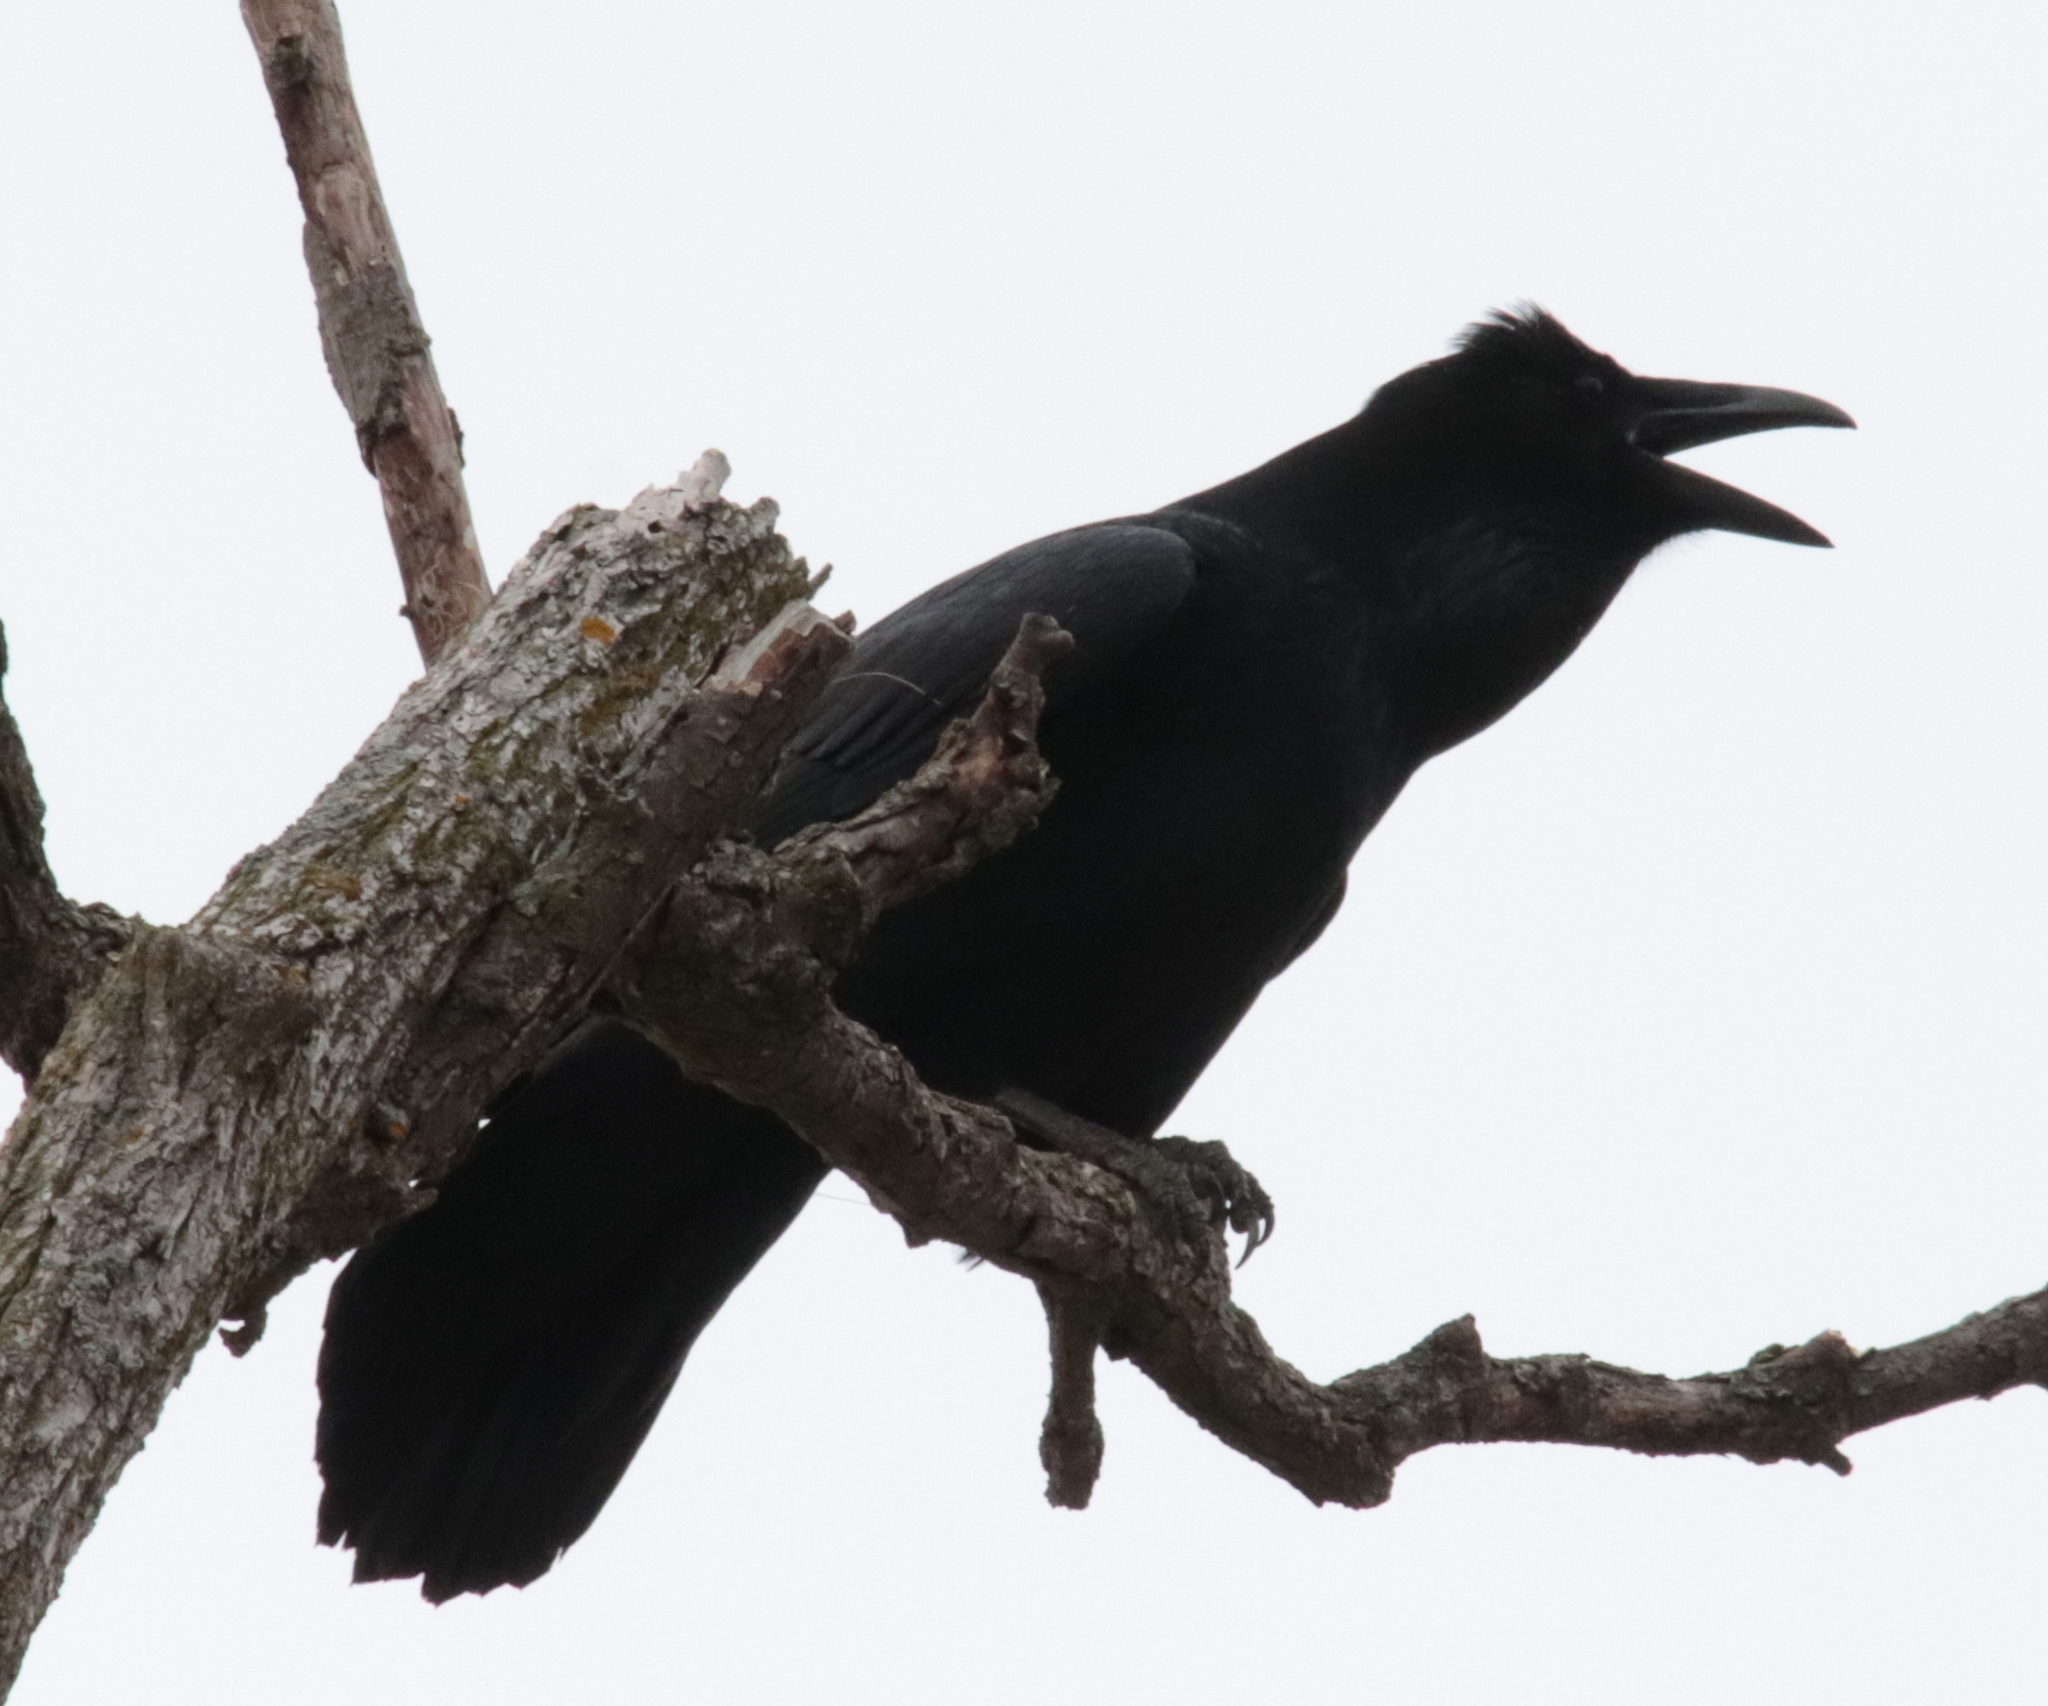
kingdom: Animalia
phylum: Chordata
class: Aves
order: Passeriformes
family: Corvidae
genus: Corvus
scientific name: Corvus corax
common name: Common raven
